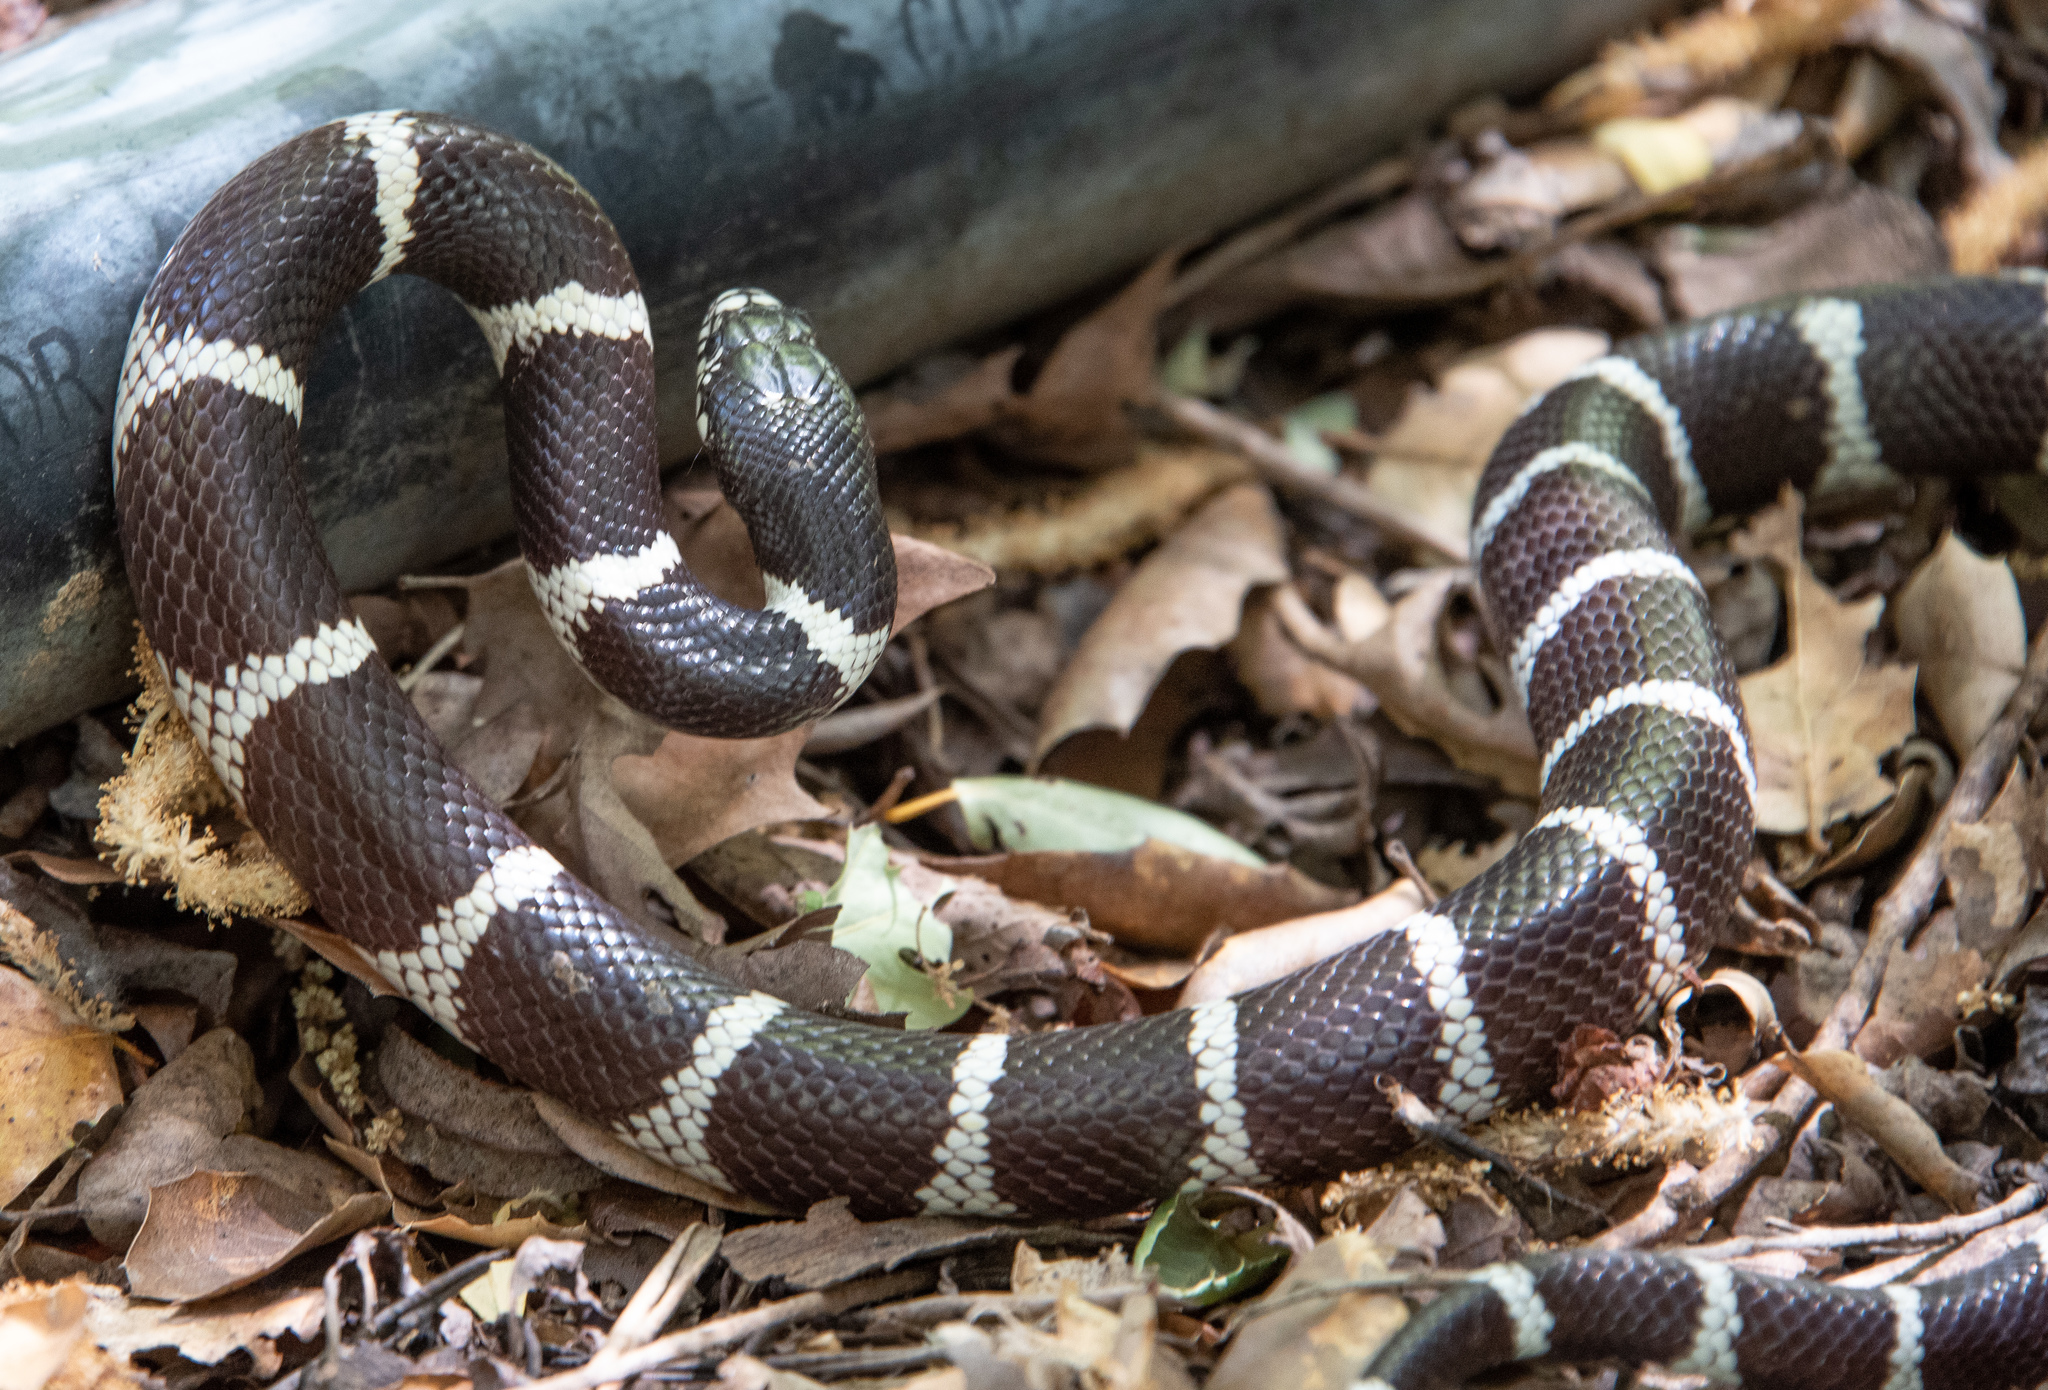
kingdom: Animalia
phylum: Chordata
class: Squamata
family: Colubridae
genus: Lampropeltis
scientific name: Lampropeltis californiae
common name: California kingsnake
